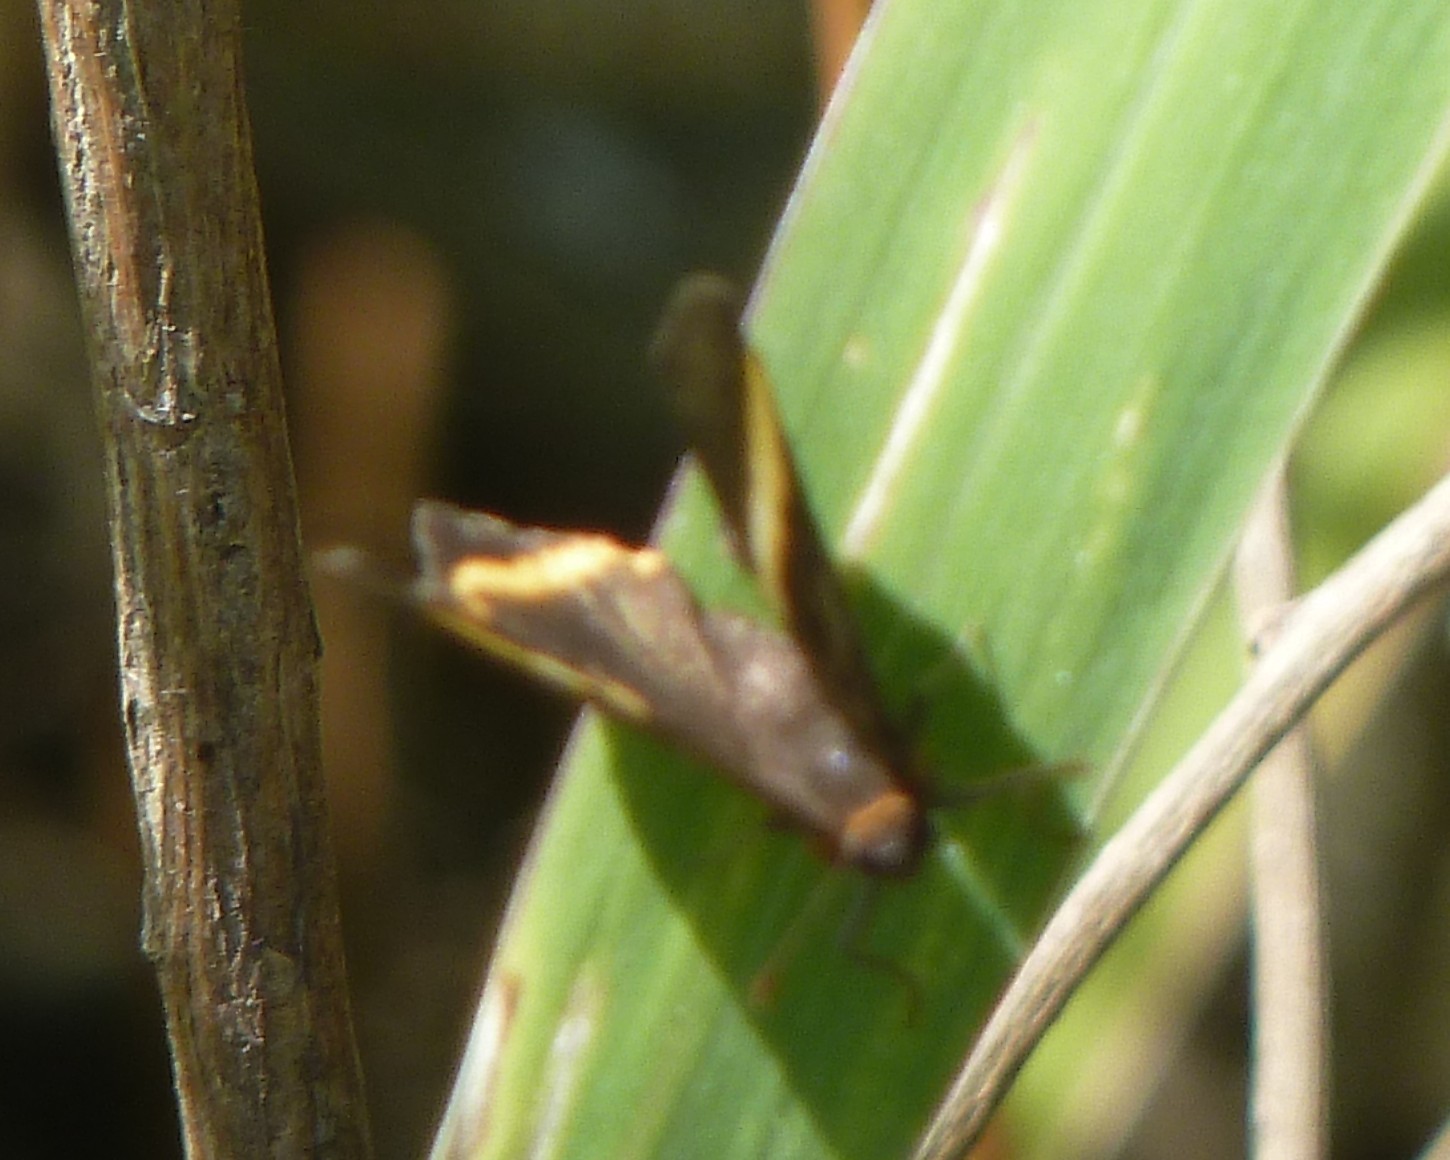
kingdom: Animalia
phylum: Arthropoda
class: Insecta
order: Lepidoptera
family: Riodinidae
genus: Riodina
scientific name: Riodina lysippoides
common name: Little dancer metalmark
